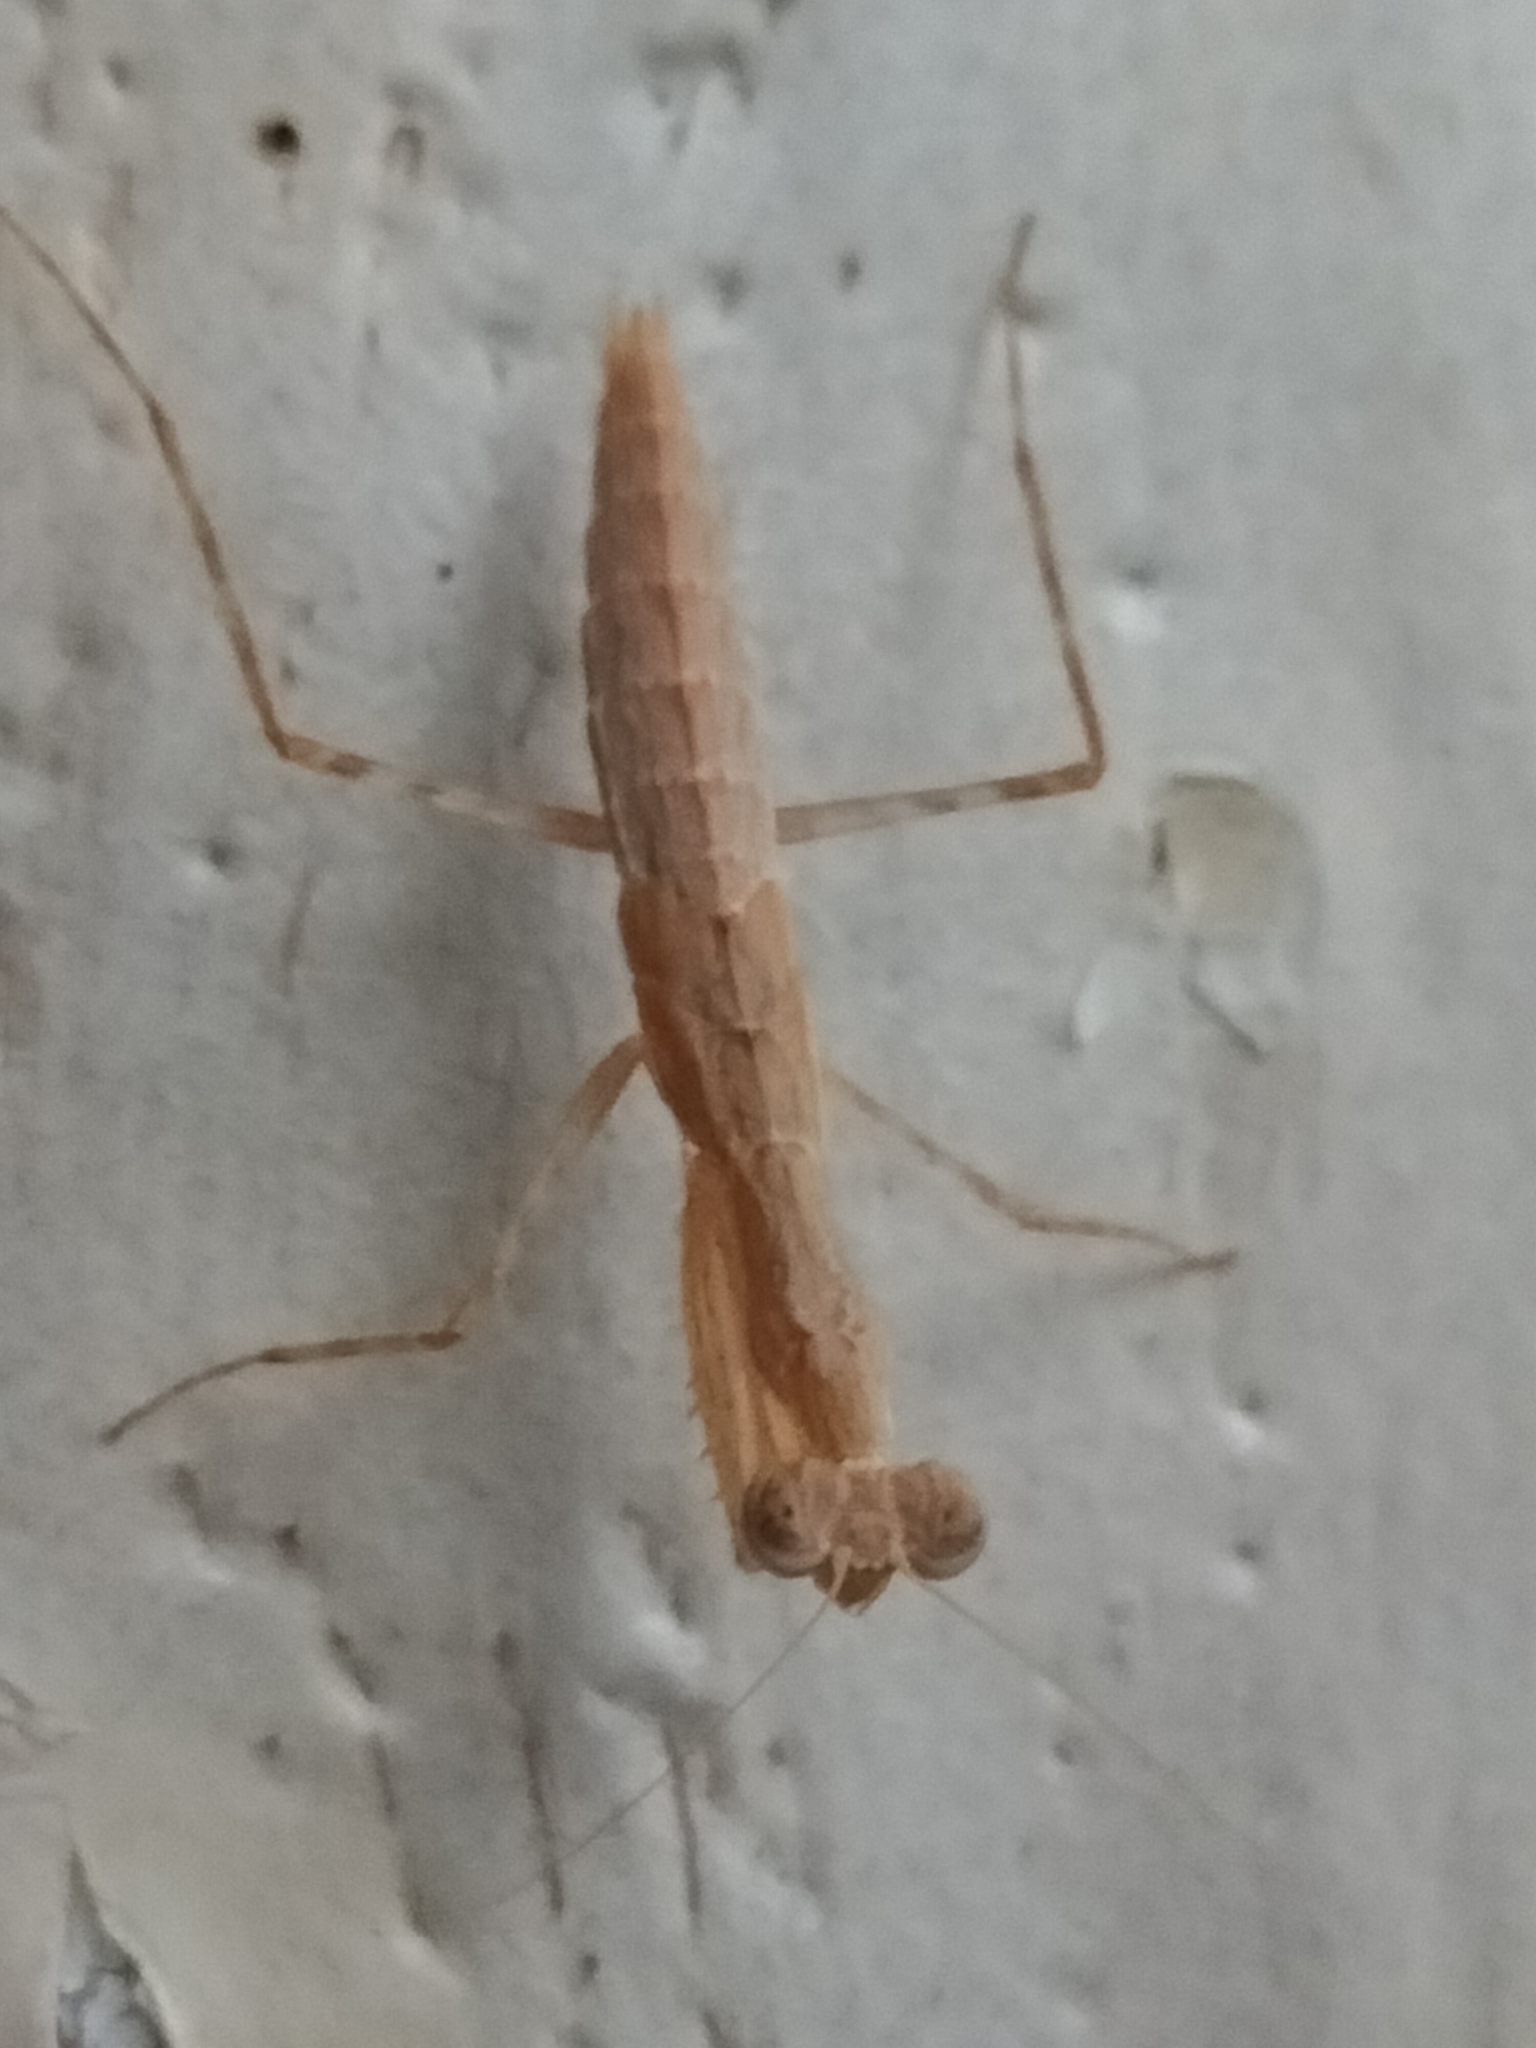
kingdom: Animalia
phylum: Arthropoda
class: Insecta
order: Mantodea
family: Nanomantidae
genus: Ima
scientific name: Ima fusca
